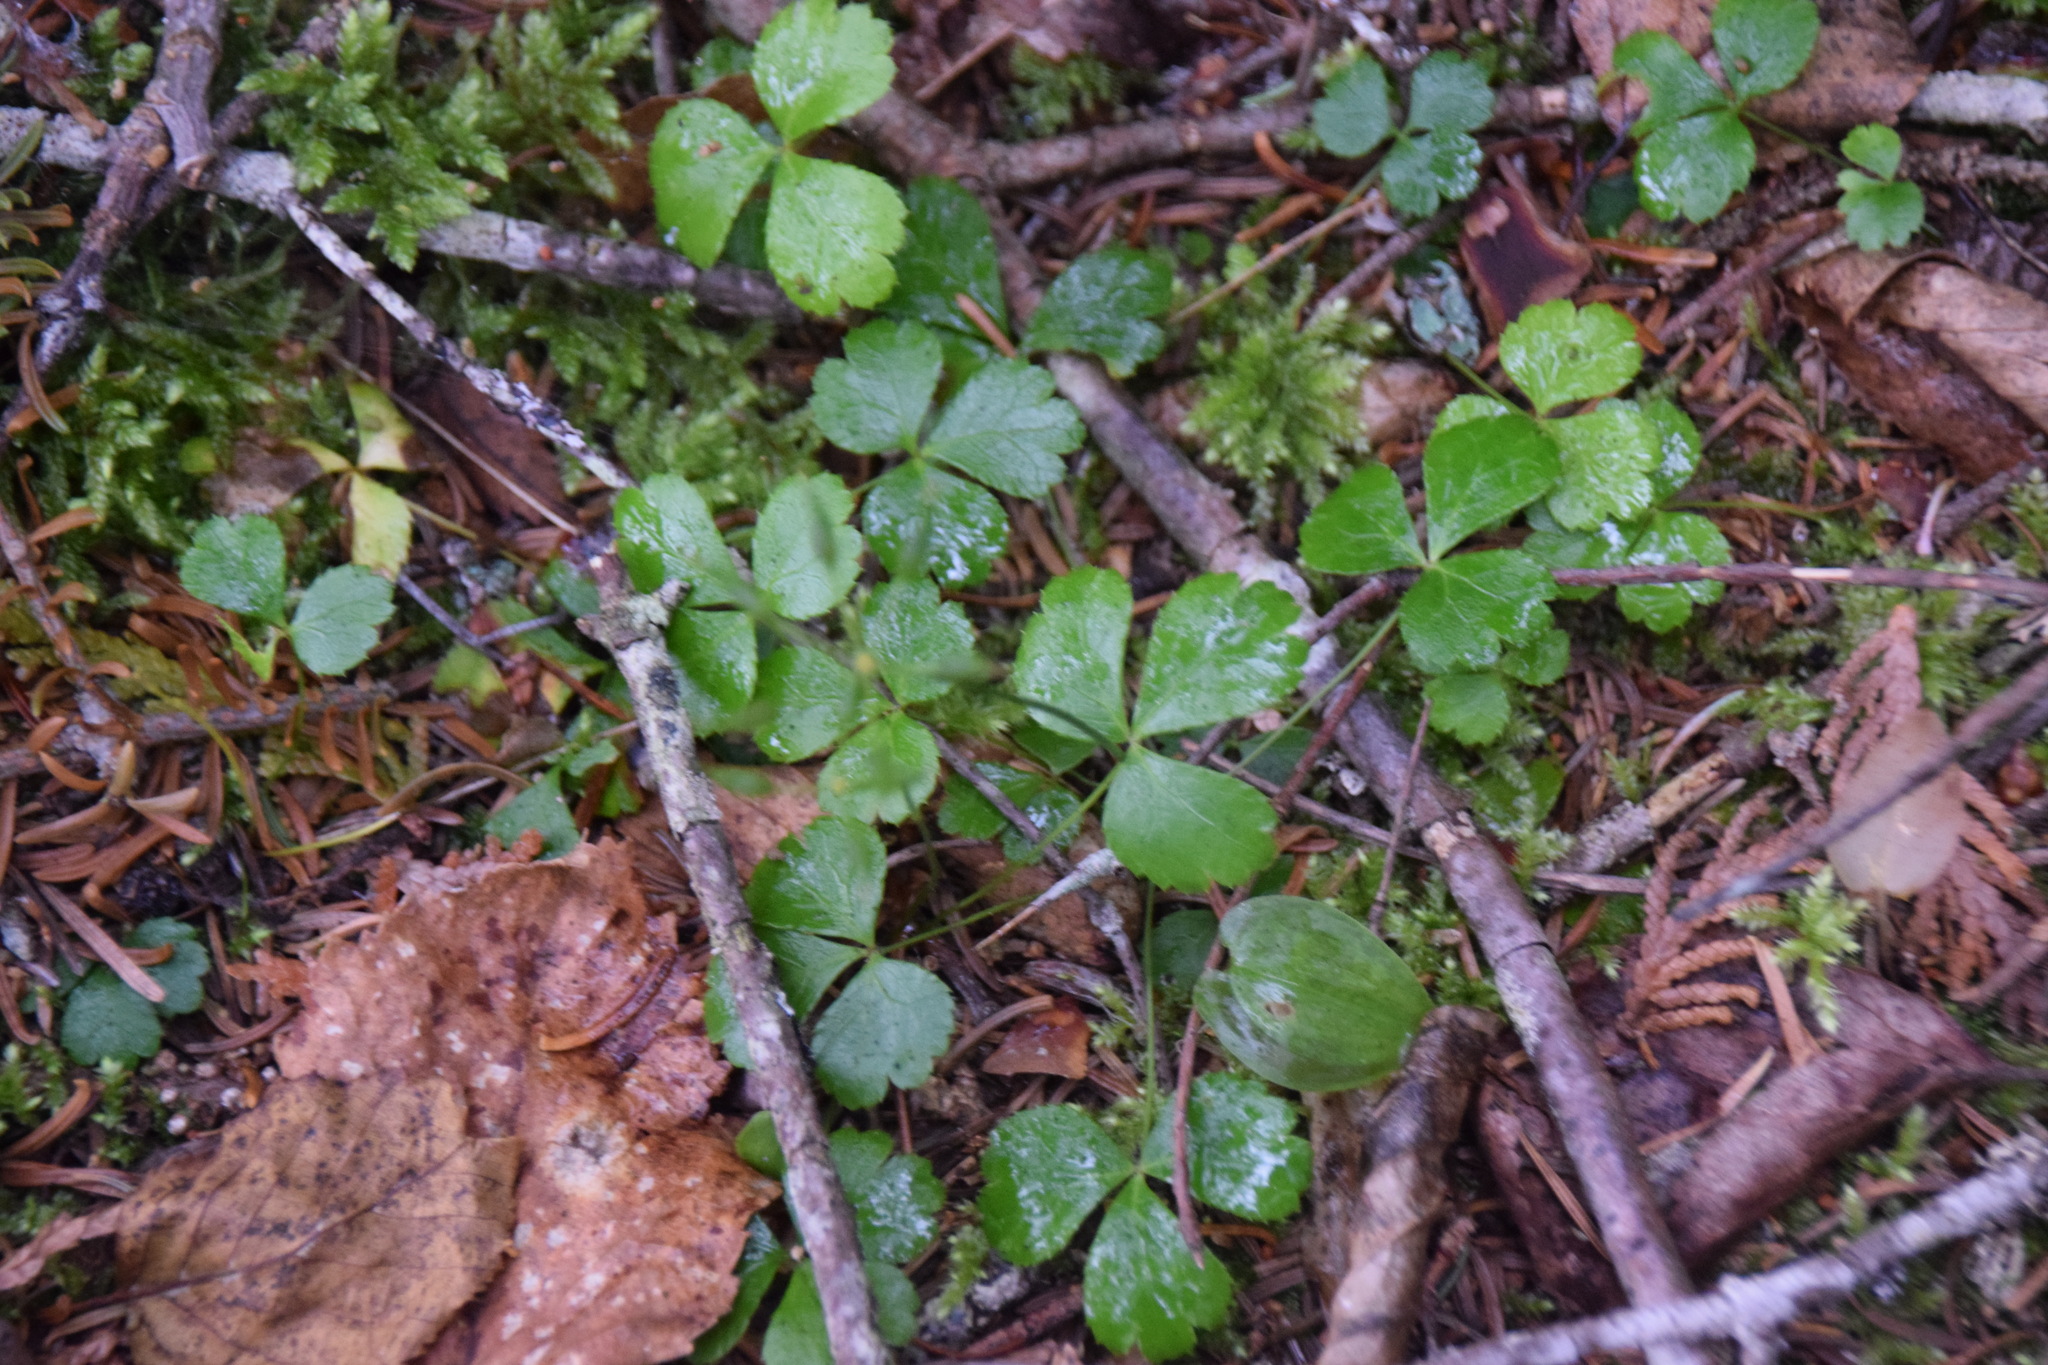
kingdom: Plantae
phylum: Tracheophyta
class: Magnoliopsida
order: Ranunculales
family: Ranunculaceae
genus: Coptis
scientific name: Coptis trifolia
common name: Canker-root
